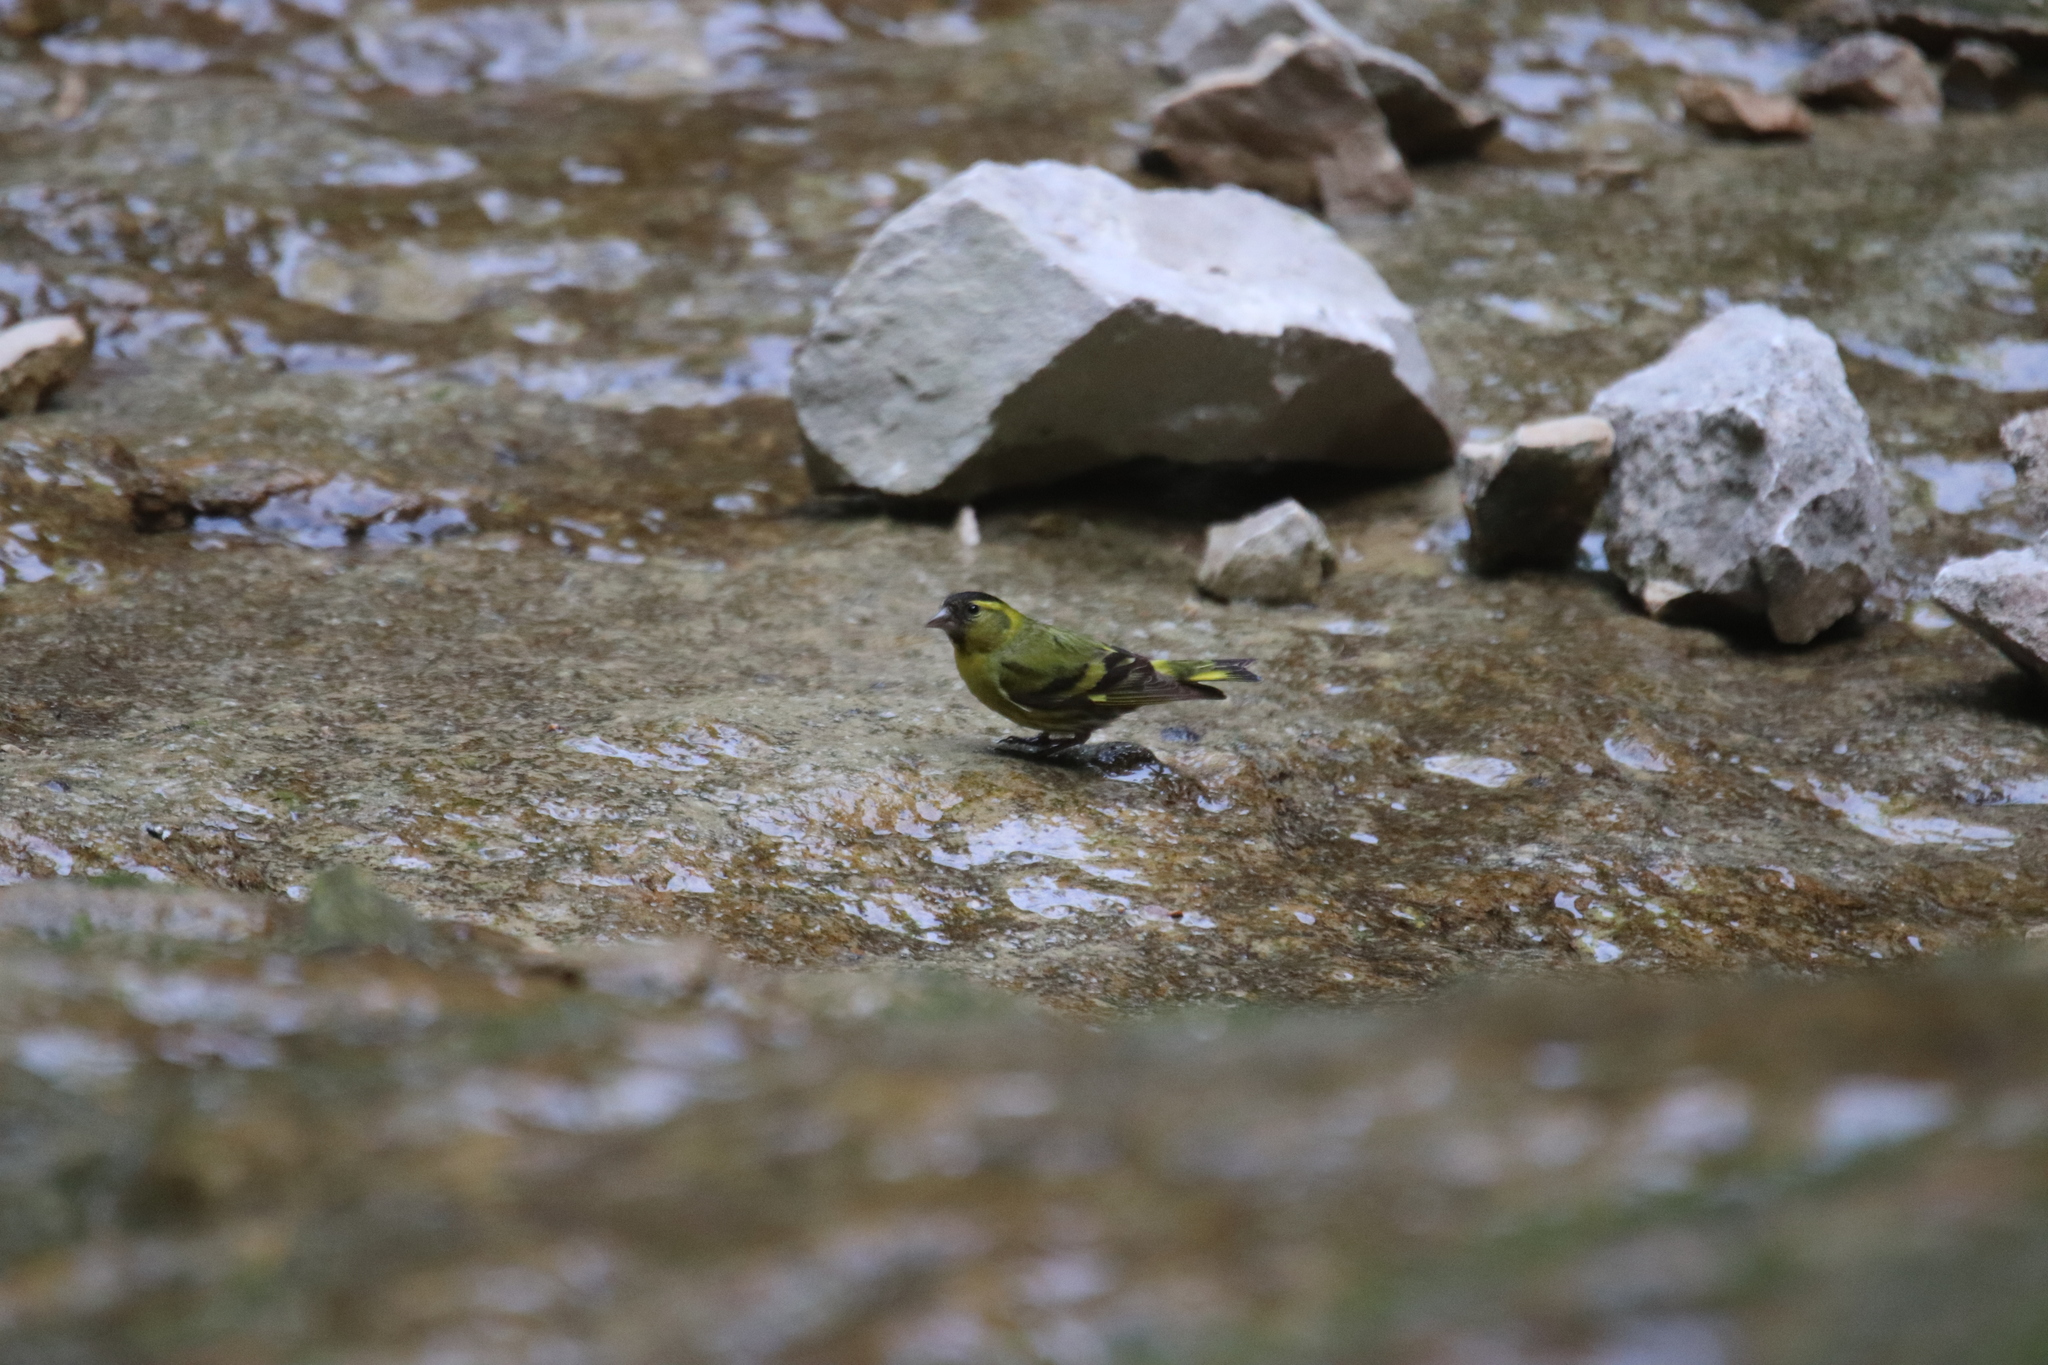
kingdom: Animalia
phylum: Chordata
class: Aves
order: Passeriformes
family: Fringillidae
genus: Spinus
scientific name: Spinus spinus
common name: Eurasian siskin
